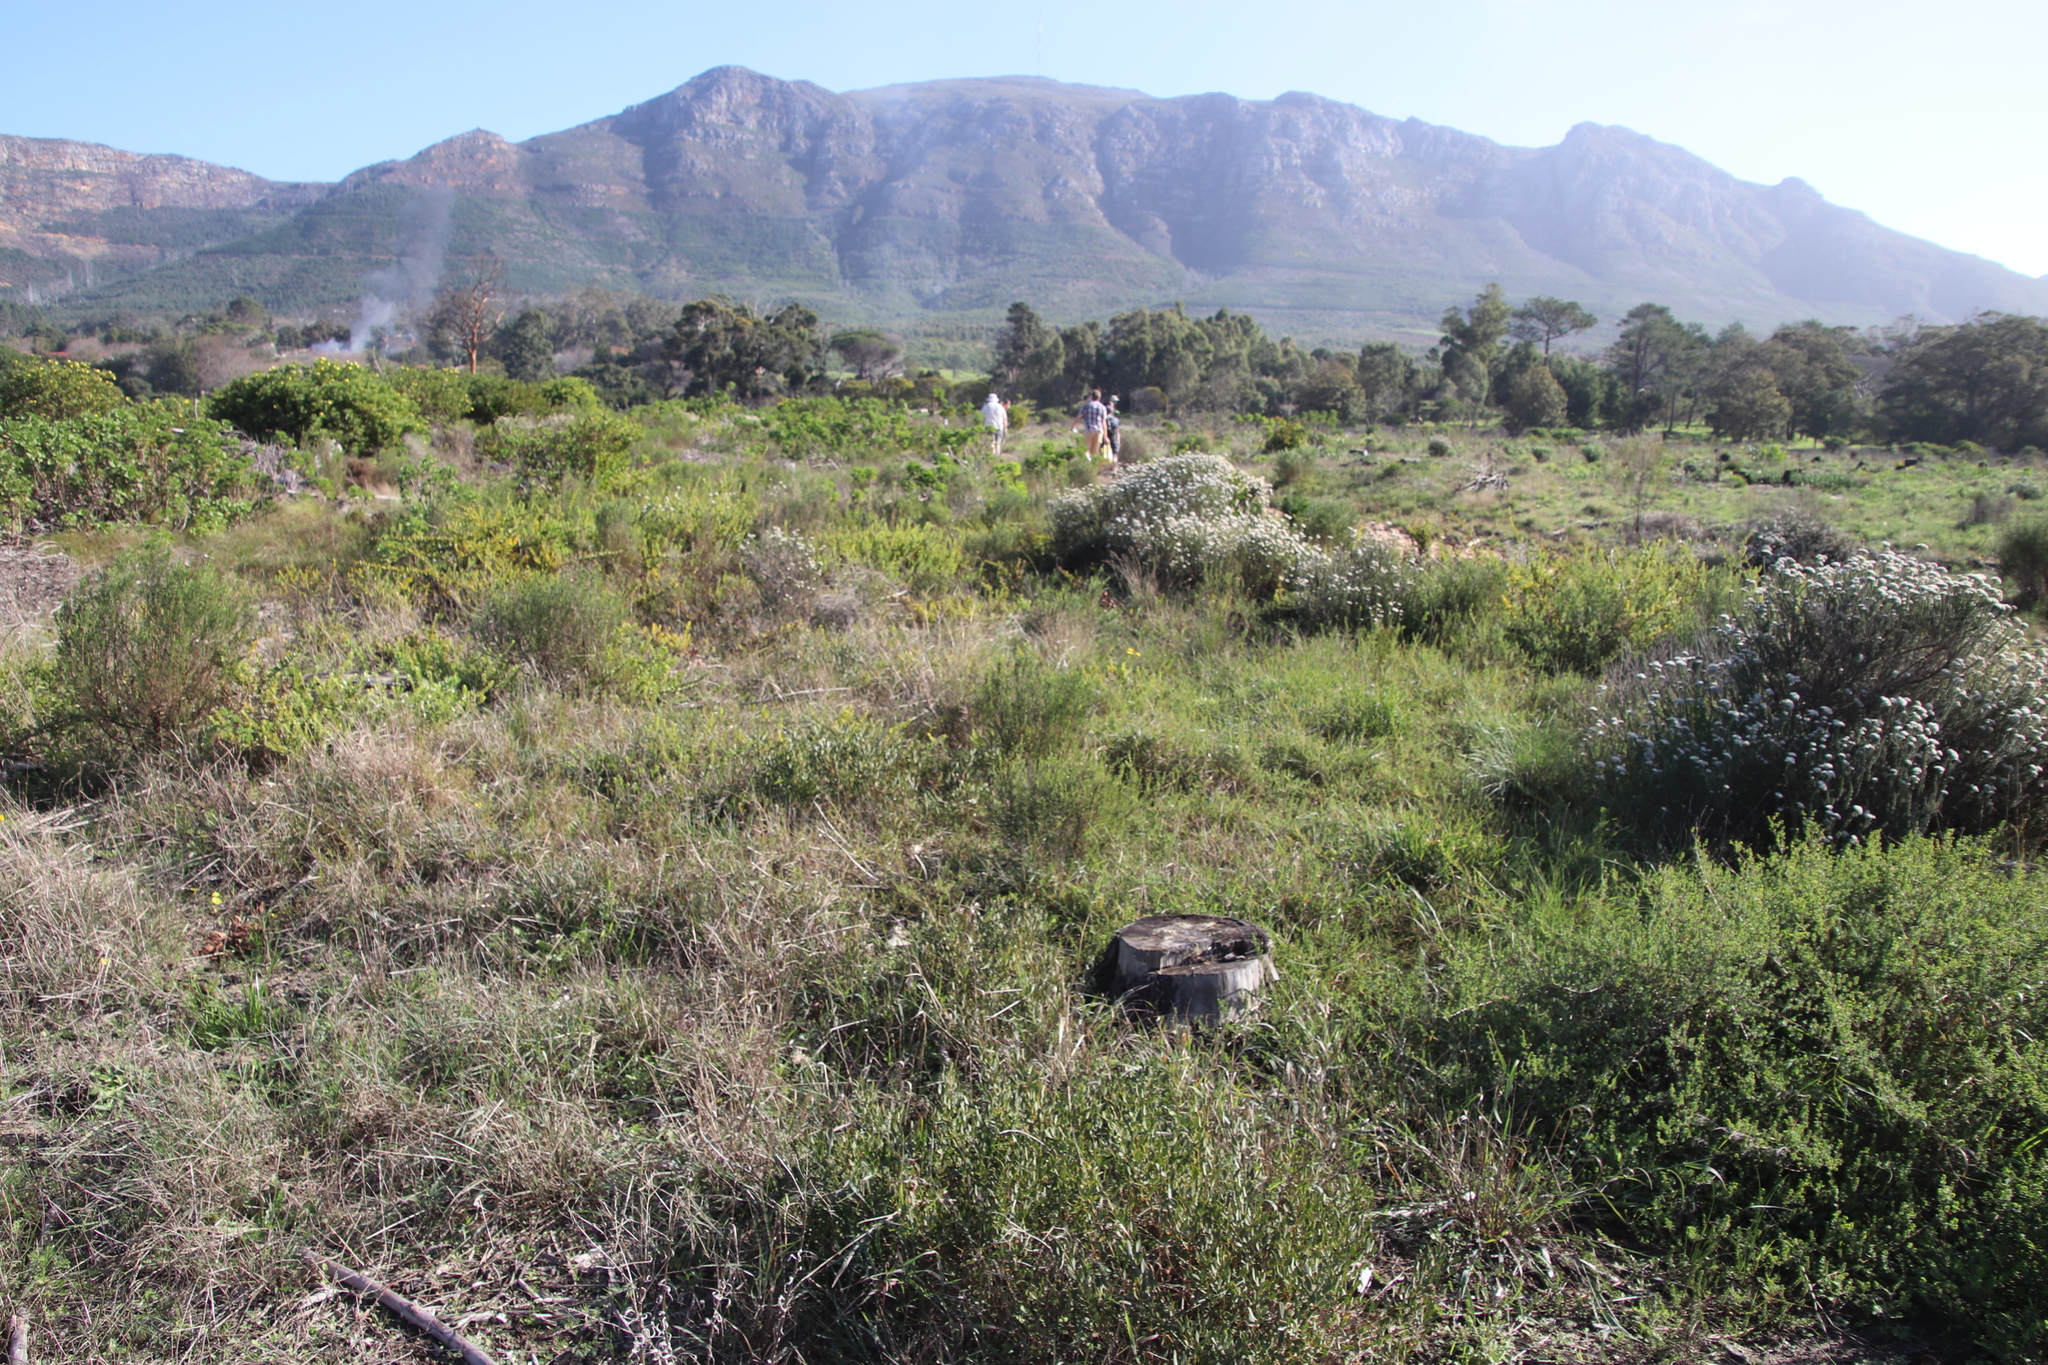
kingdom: Plantae
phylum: Tracheophyta
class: Magnoliopsida
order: Asterales
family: Asteraceae
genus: Metalasia
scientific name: Metalasia densa
